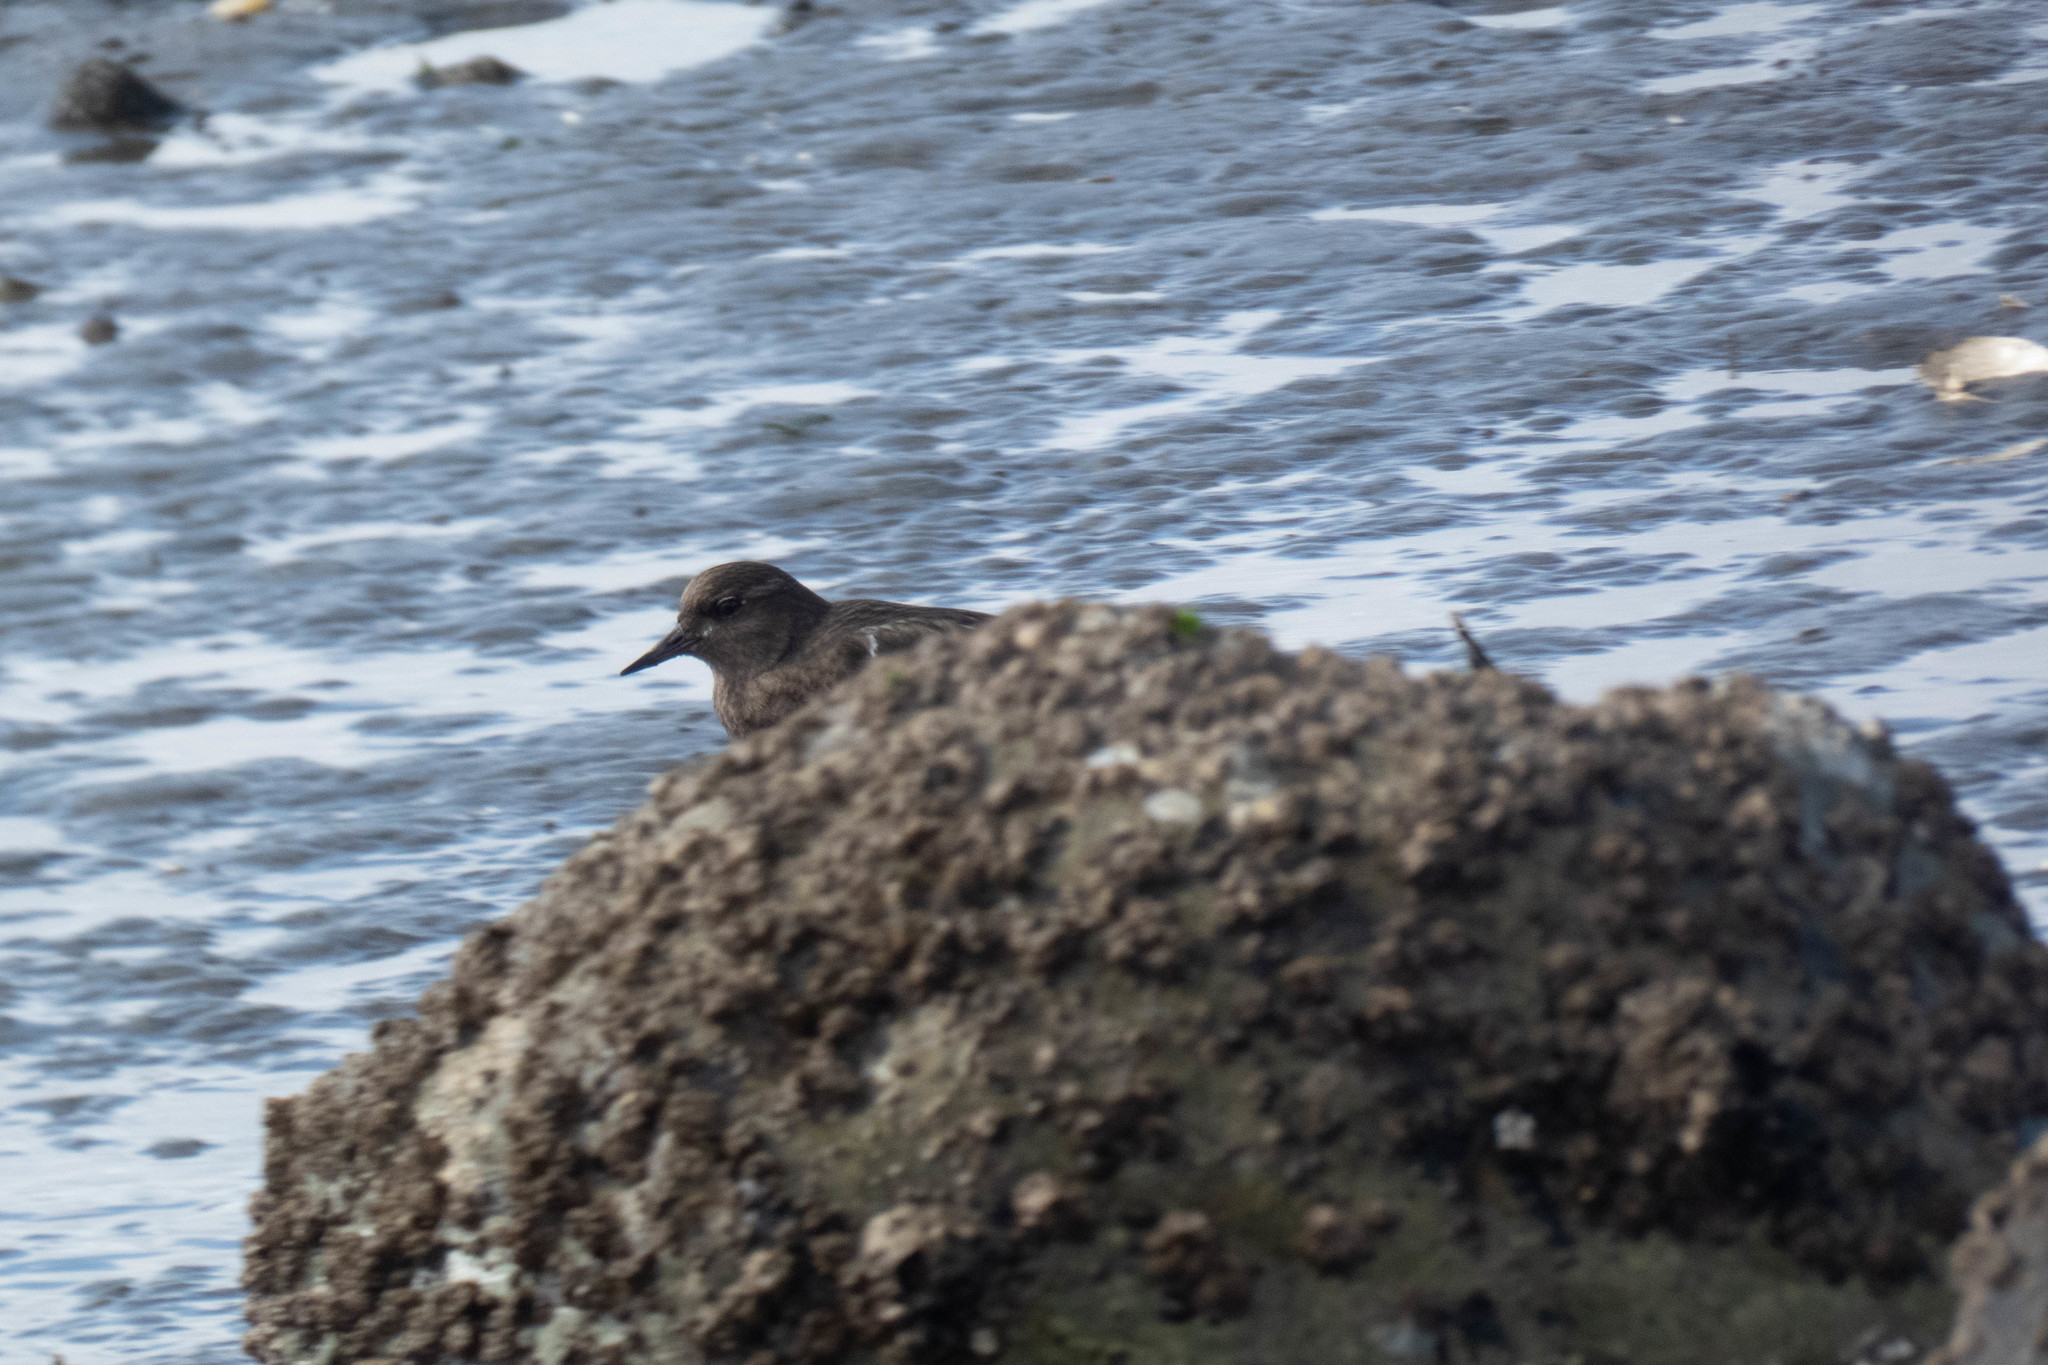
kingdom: Animalia
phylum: Chordata
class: Aves
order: Charadriiformes
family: Scolopacidae
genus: Arenaria
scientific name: Arenaria melanocephala
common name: Black turnstone
